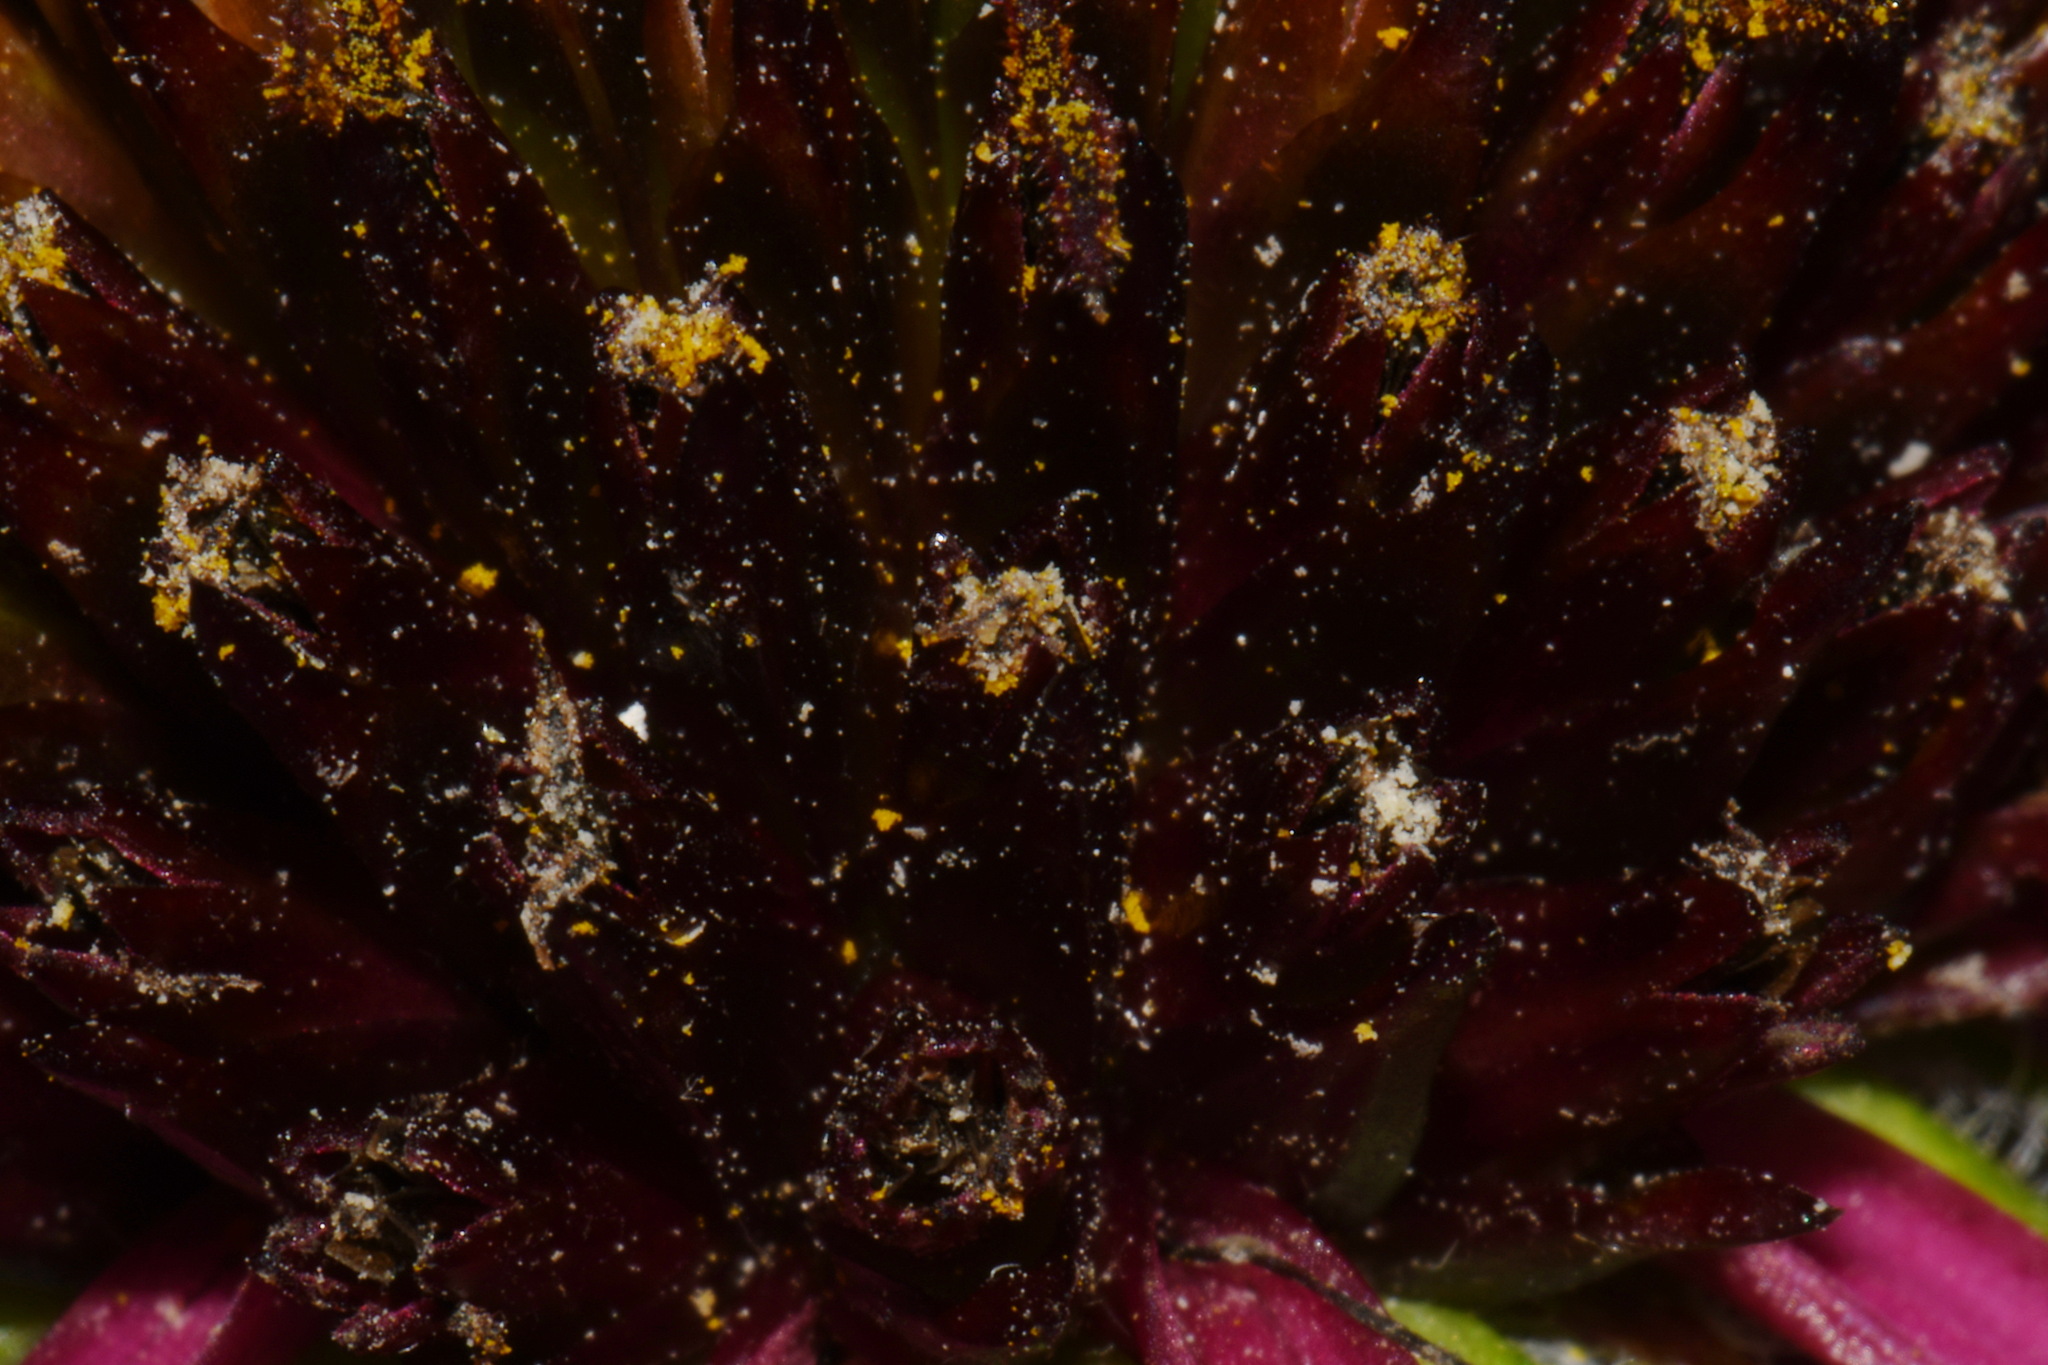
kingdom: Plantae
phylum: Tracheophyta
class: Magnoliopsida
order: Asterales
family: Asteraceae
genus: Echinacea
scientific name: Echinacea simulata
